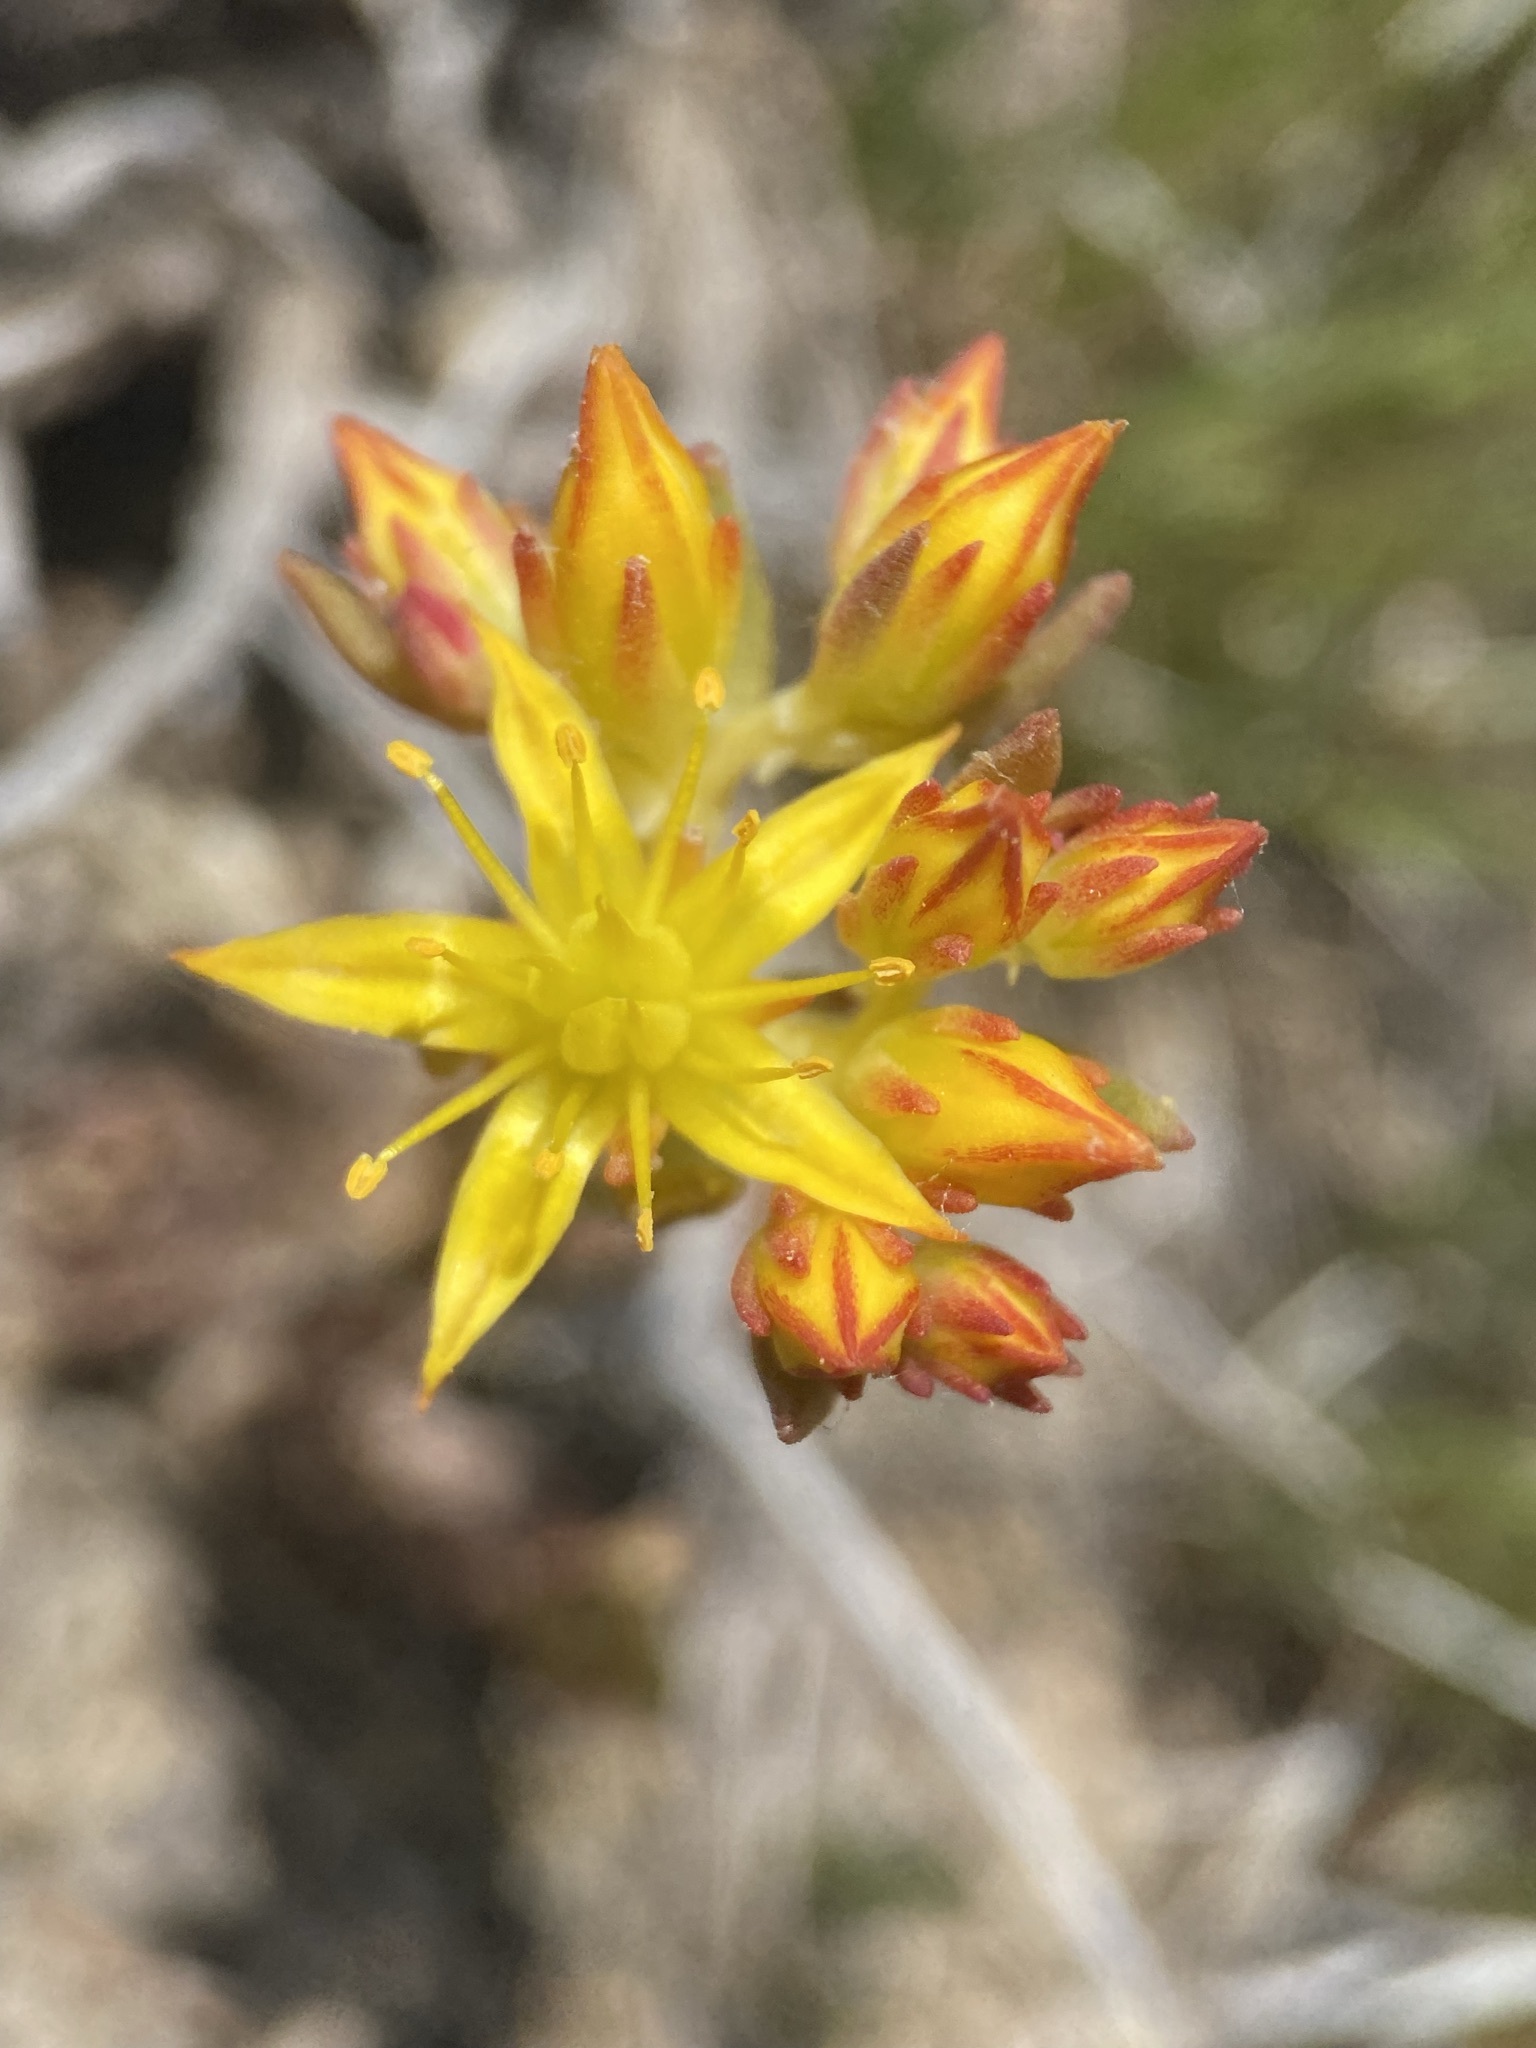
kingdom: Plantae
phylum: Tracheophyta
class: Magnoliopsida
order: Saxifragales
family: Crassulaceae
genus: Sedum
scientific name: Sedum lanceolatum
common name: Common stonecrop
